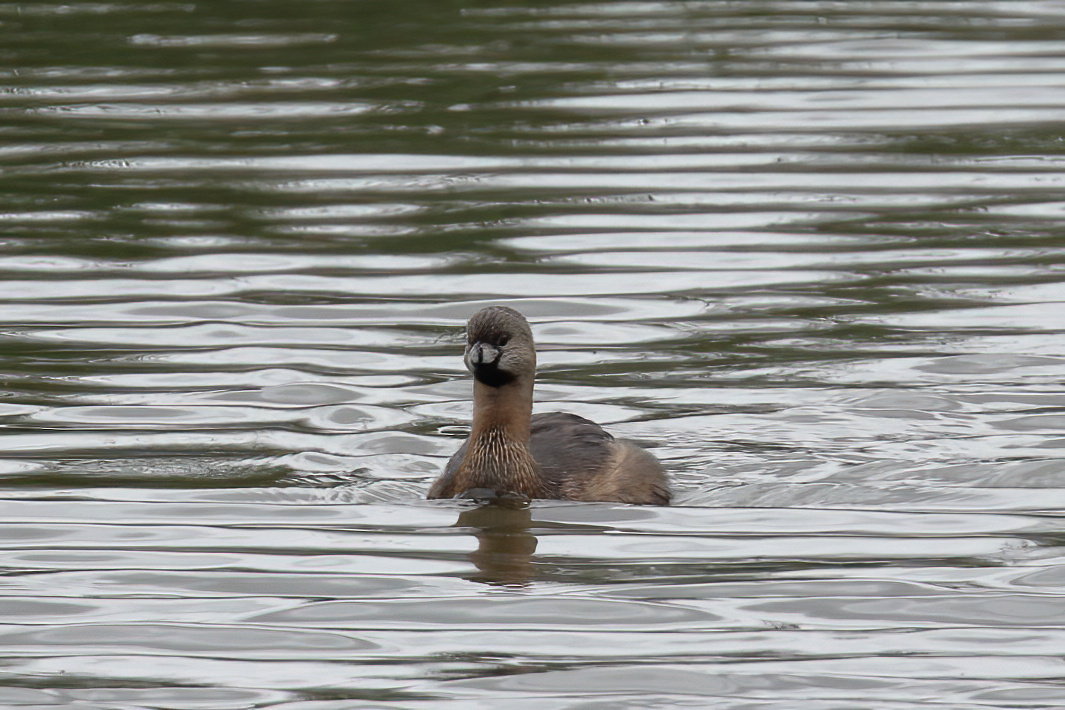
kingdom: Animalia
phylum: Chordata
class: Aves
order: Podicipediformes
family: Podicipedidae
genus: Podilymbus
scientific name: Podilymbus podiceps
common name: Pied-billed grebe
